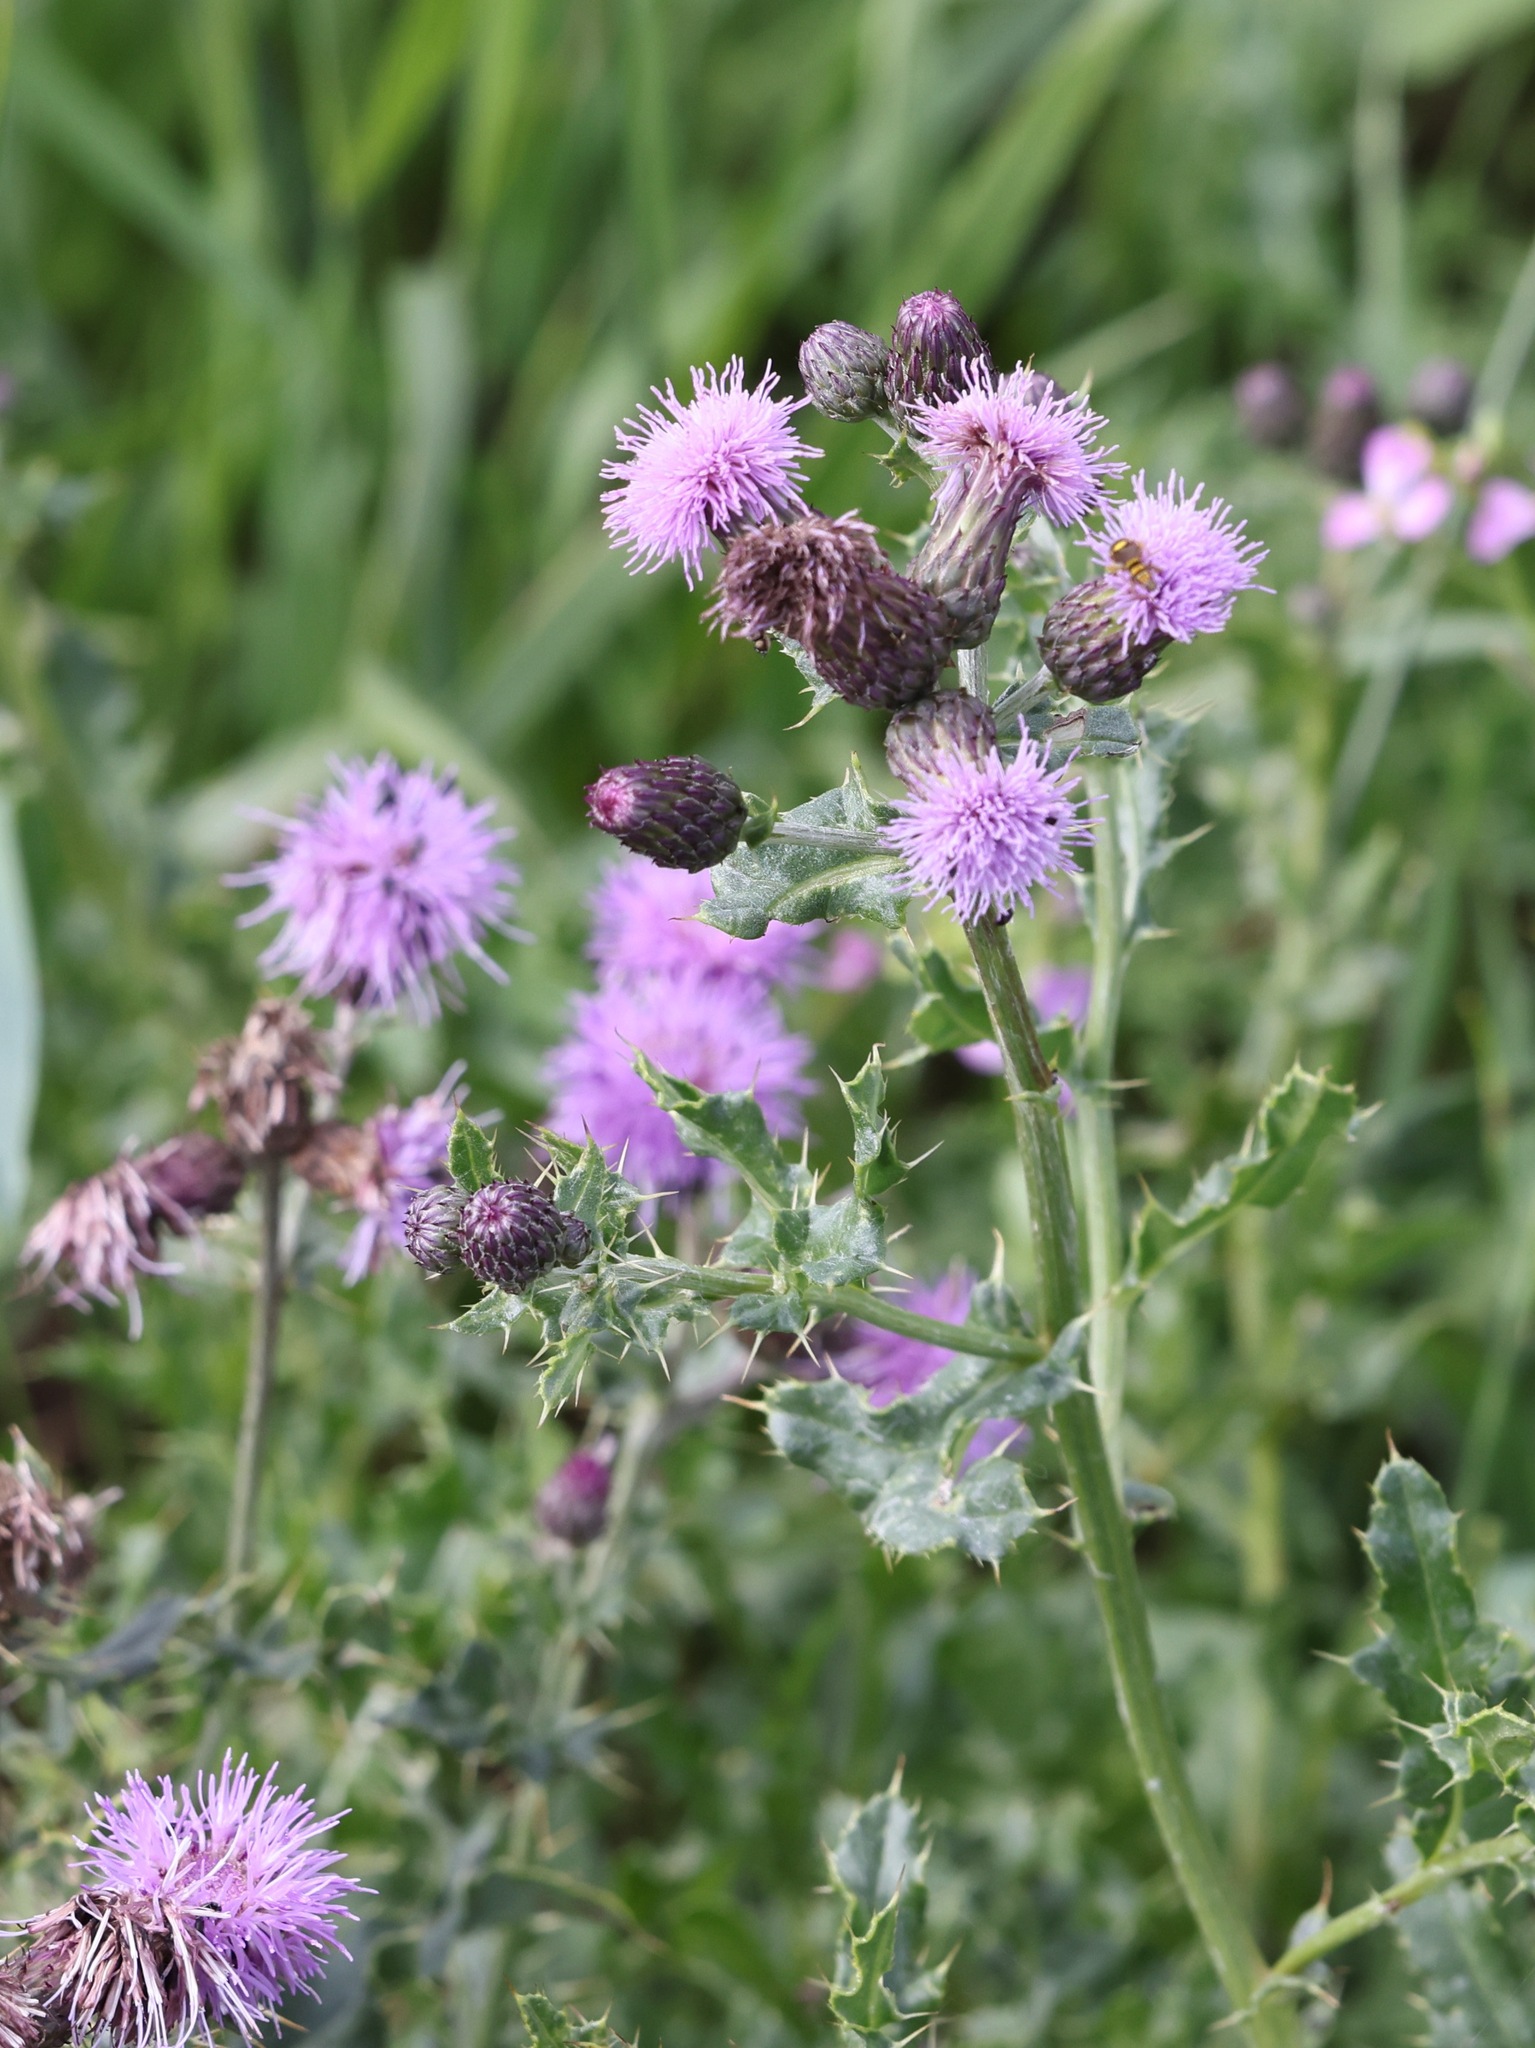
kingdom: Plantae
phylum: Tracheophyta
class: Magnoliopsida
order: Asterales
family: Asteraceae
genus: Cirsium
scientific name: Cirsium arvense
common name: Creeping thistle
